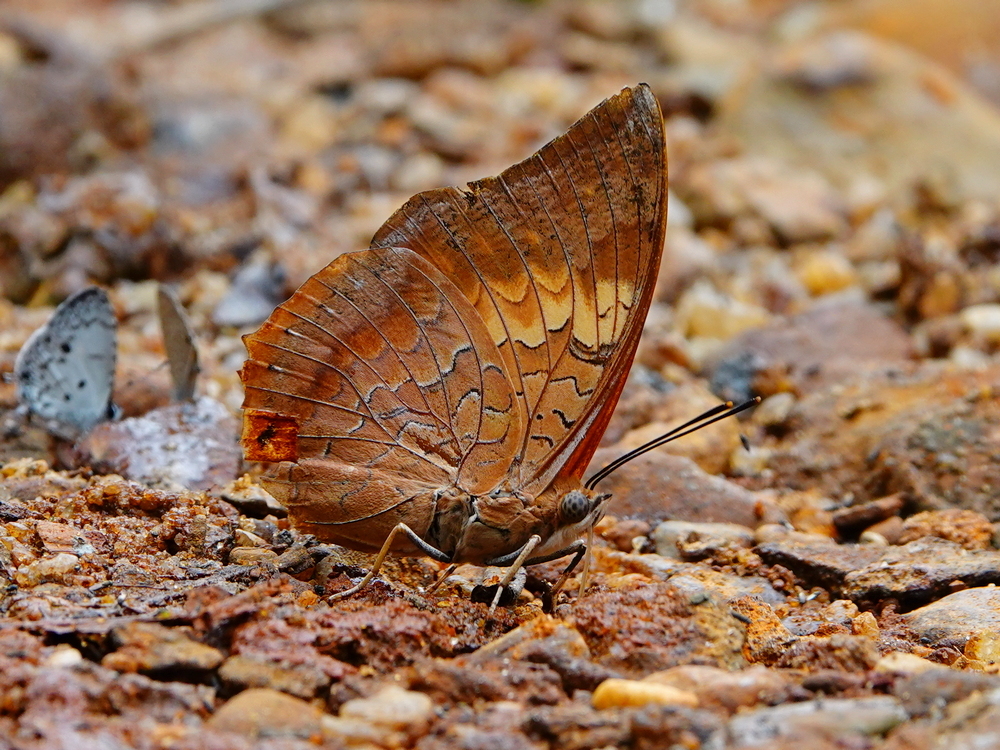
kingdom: Animalia
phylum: Arthropoda
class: Insecta
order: Lepidoptera
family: Nymphalidae
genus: Charaxes
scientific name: Charaxes bernardus
